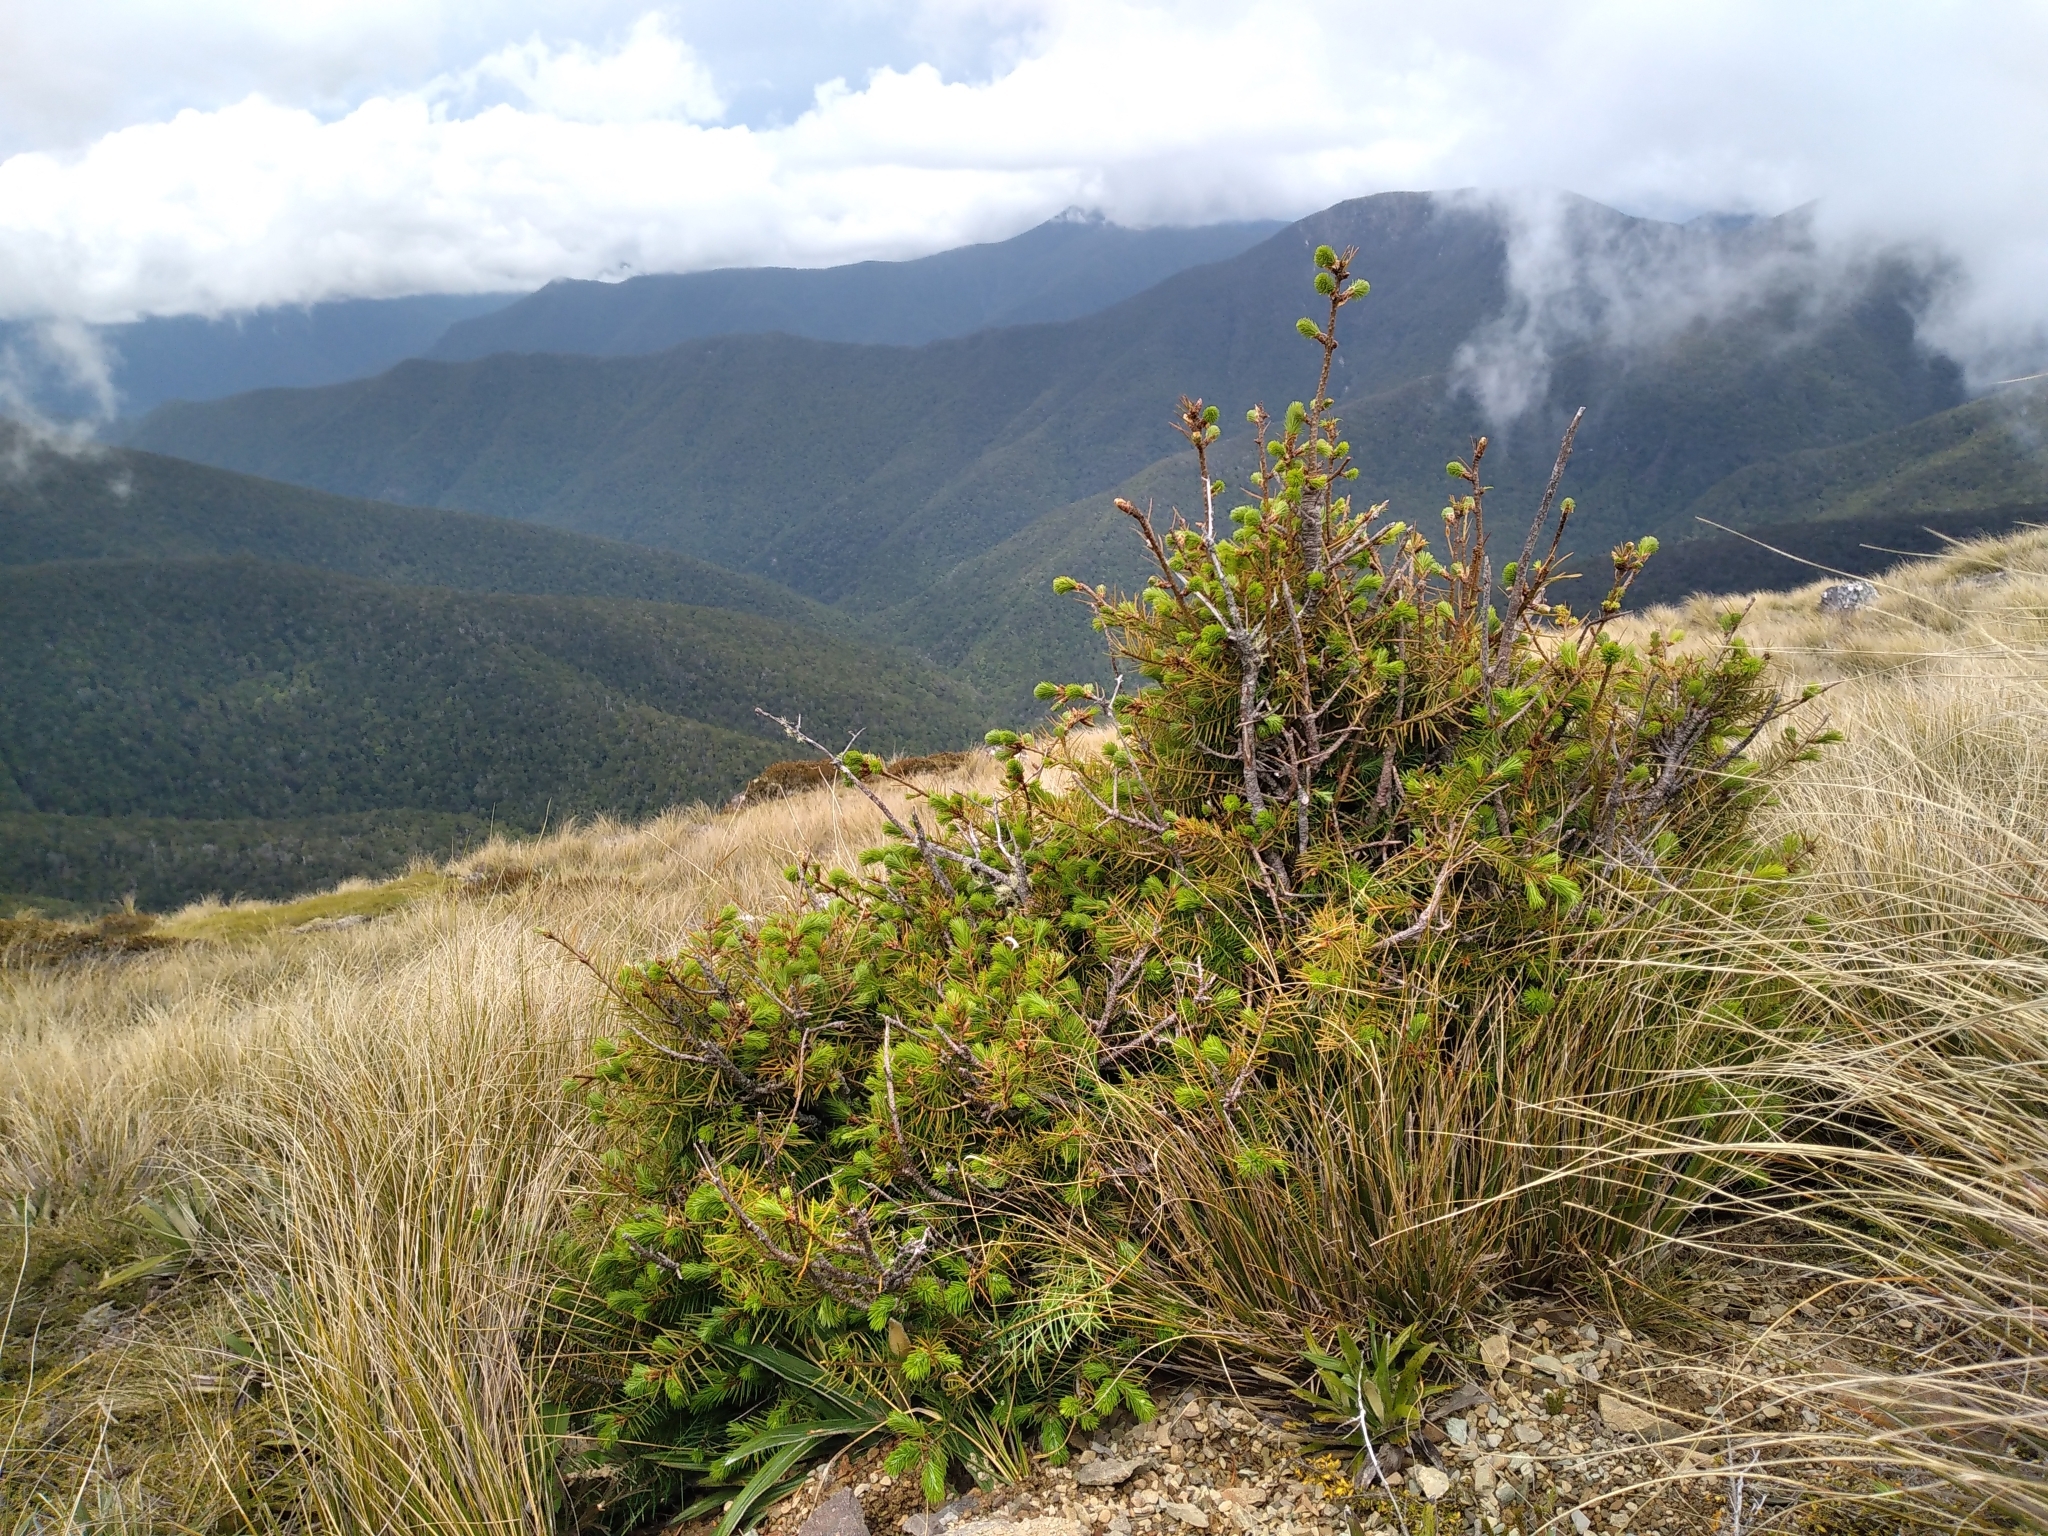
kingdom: Plantae
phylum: Tracheophyta
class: Pinopsida
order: Pinales
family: Pinaceae
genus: Pseudotsuga
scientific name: Pseudotsuga menziesii
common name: Douglas fir
